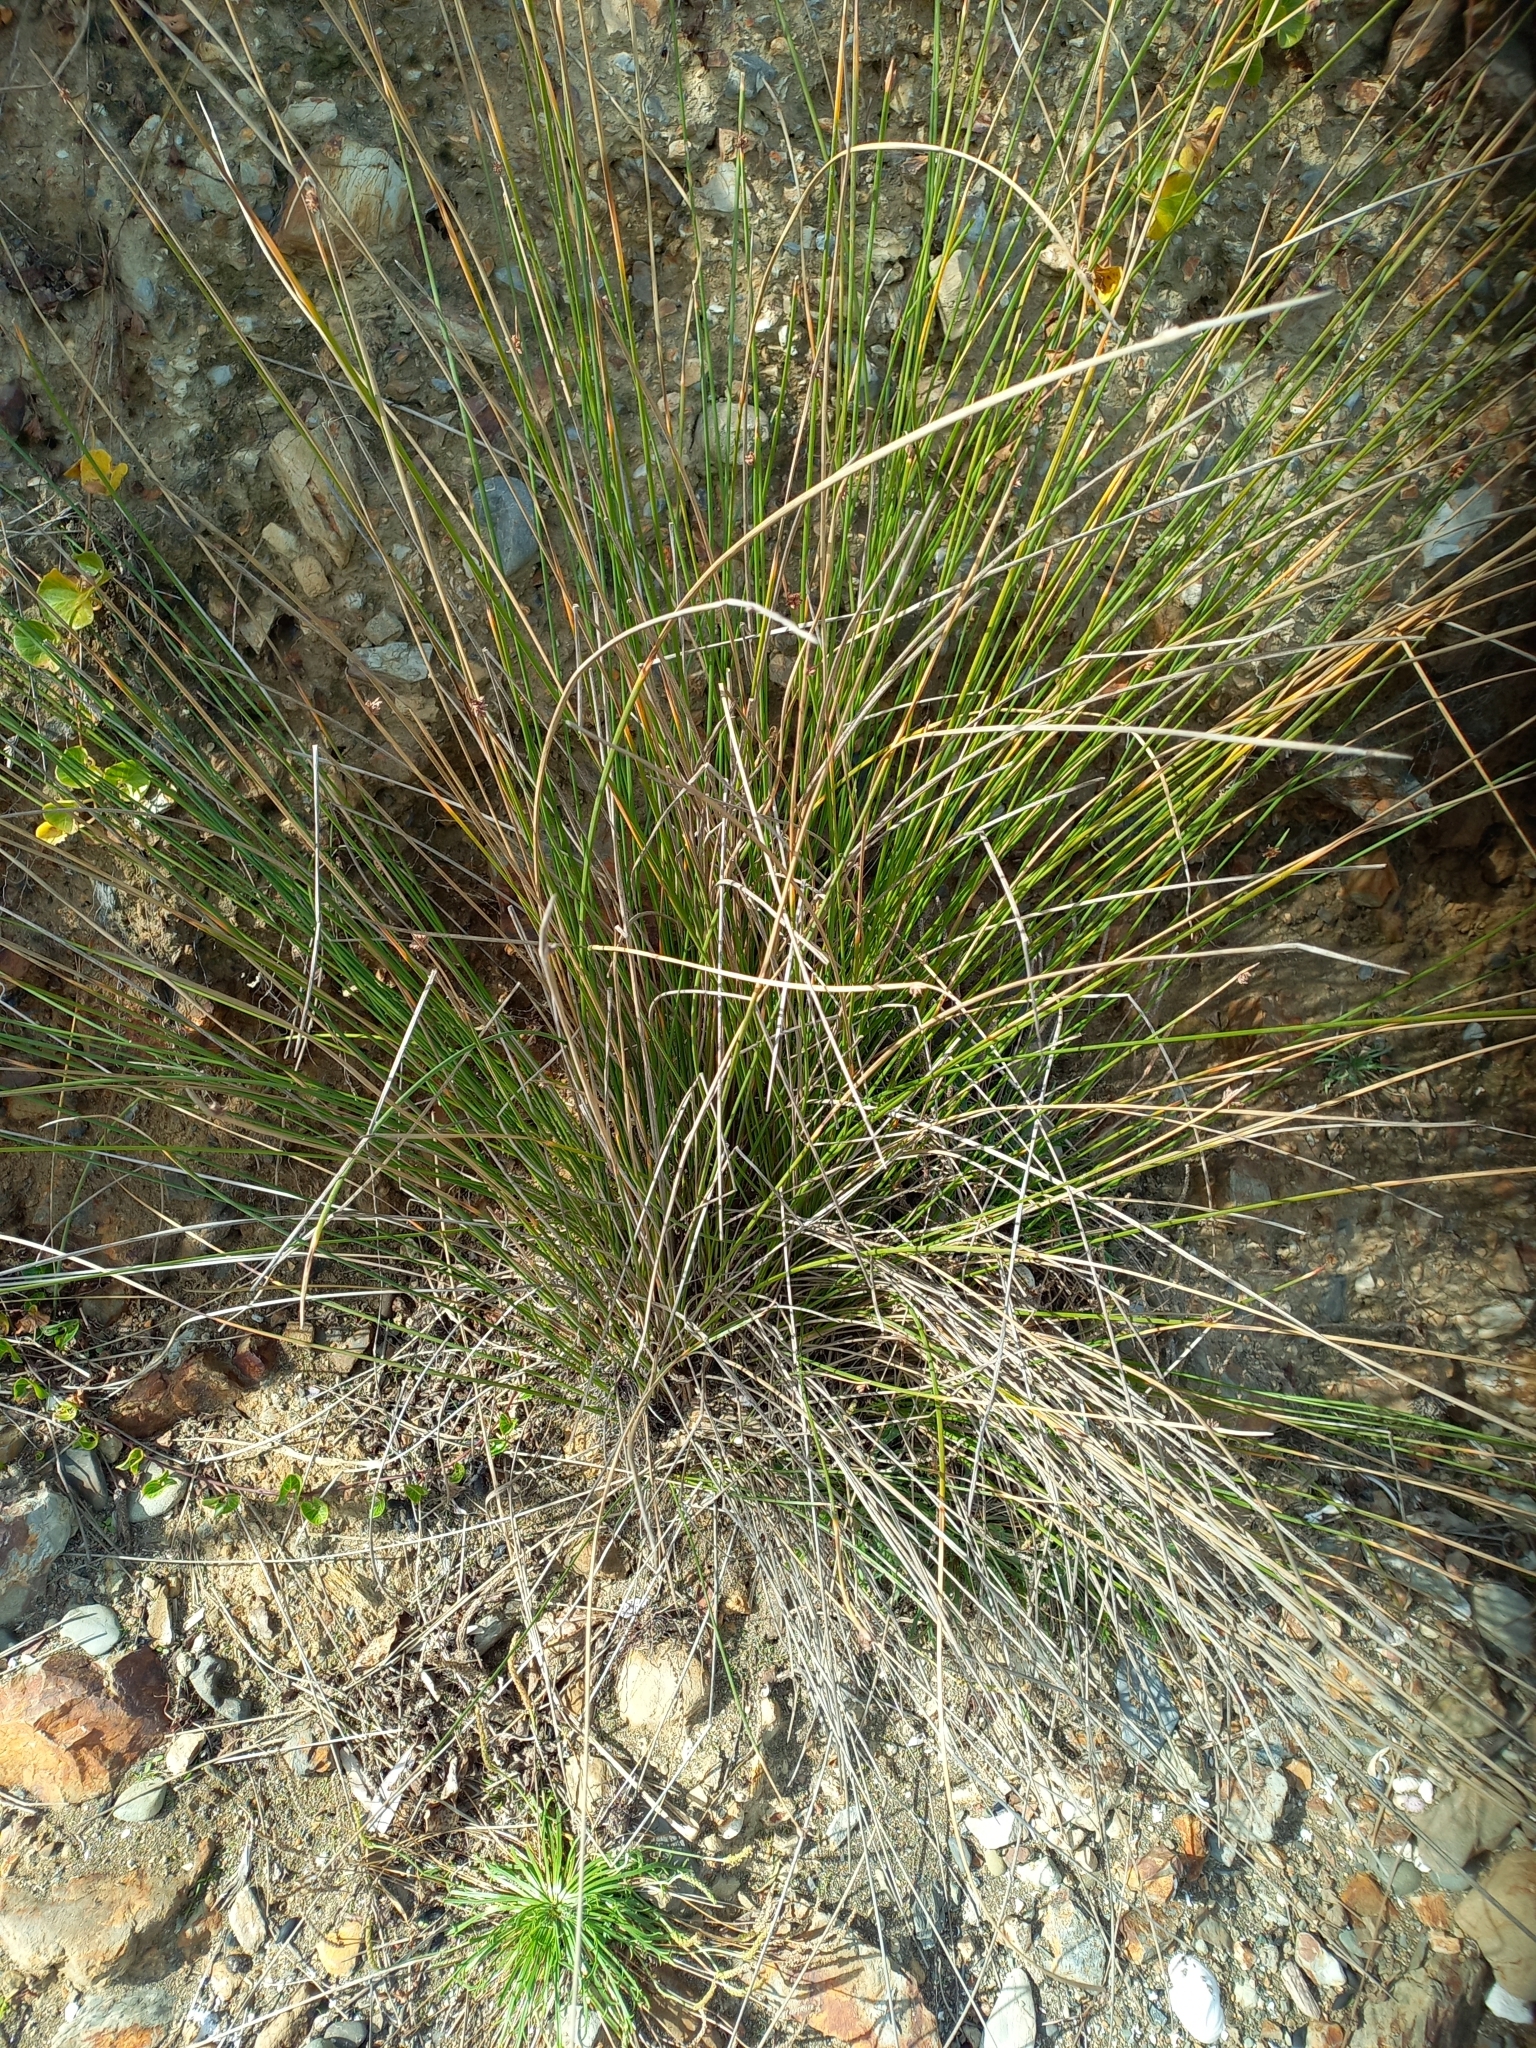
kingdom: Plantae
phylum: Tracheophyta
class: Liliopsida
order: Poales
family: Cyperaceae
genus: Ficinia
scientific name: Ficinia nodosa
